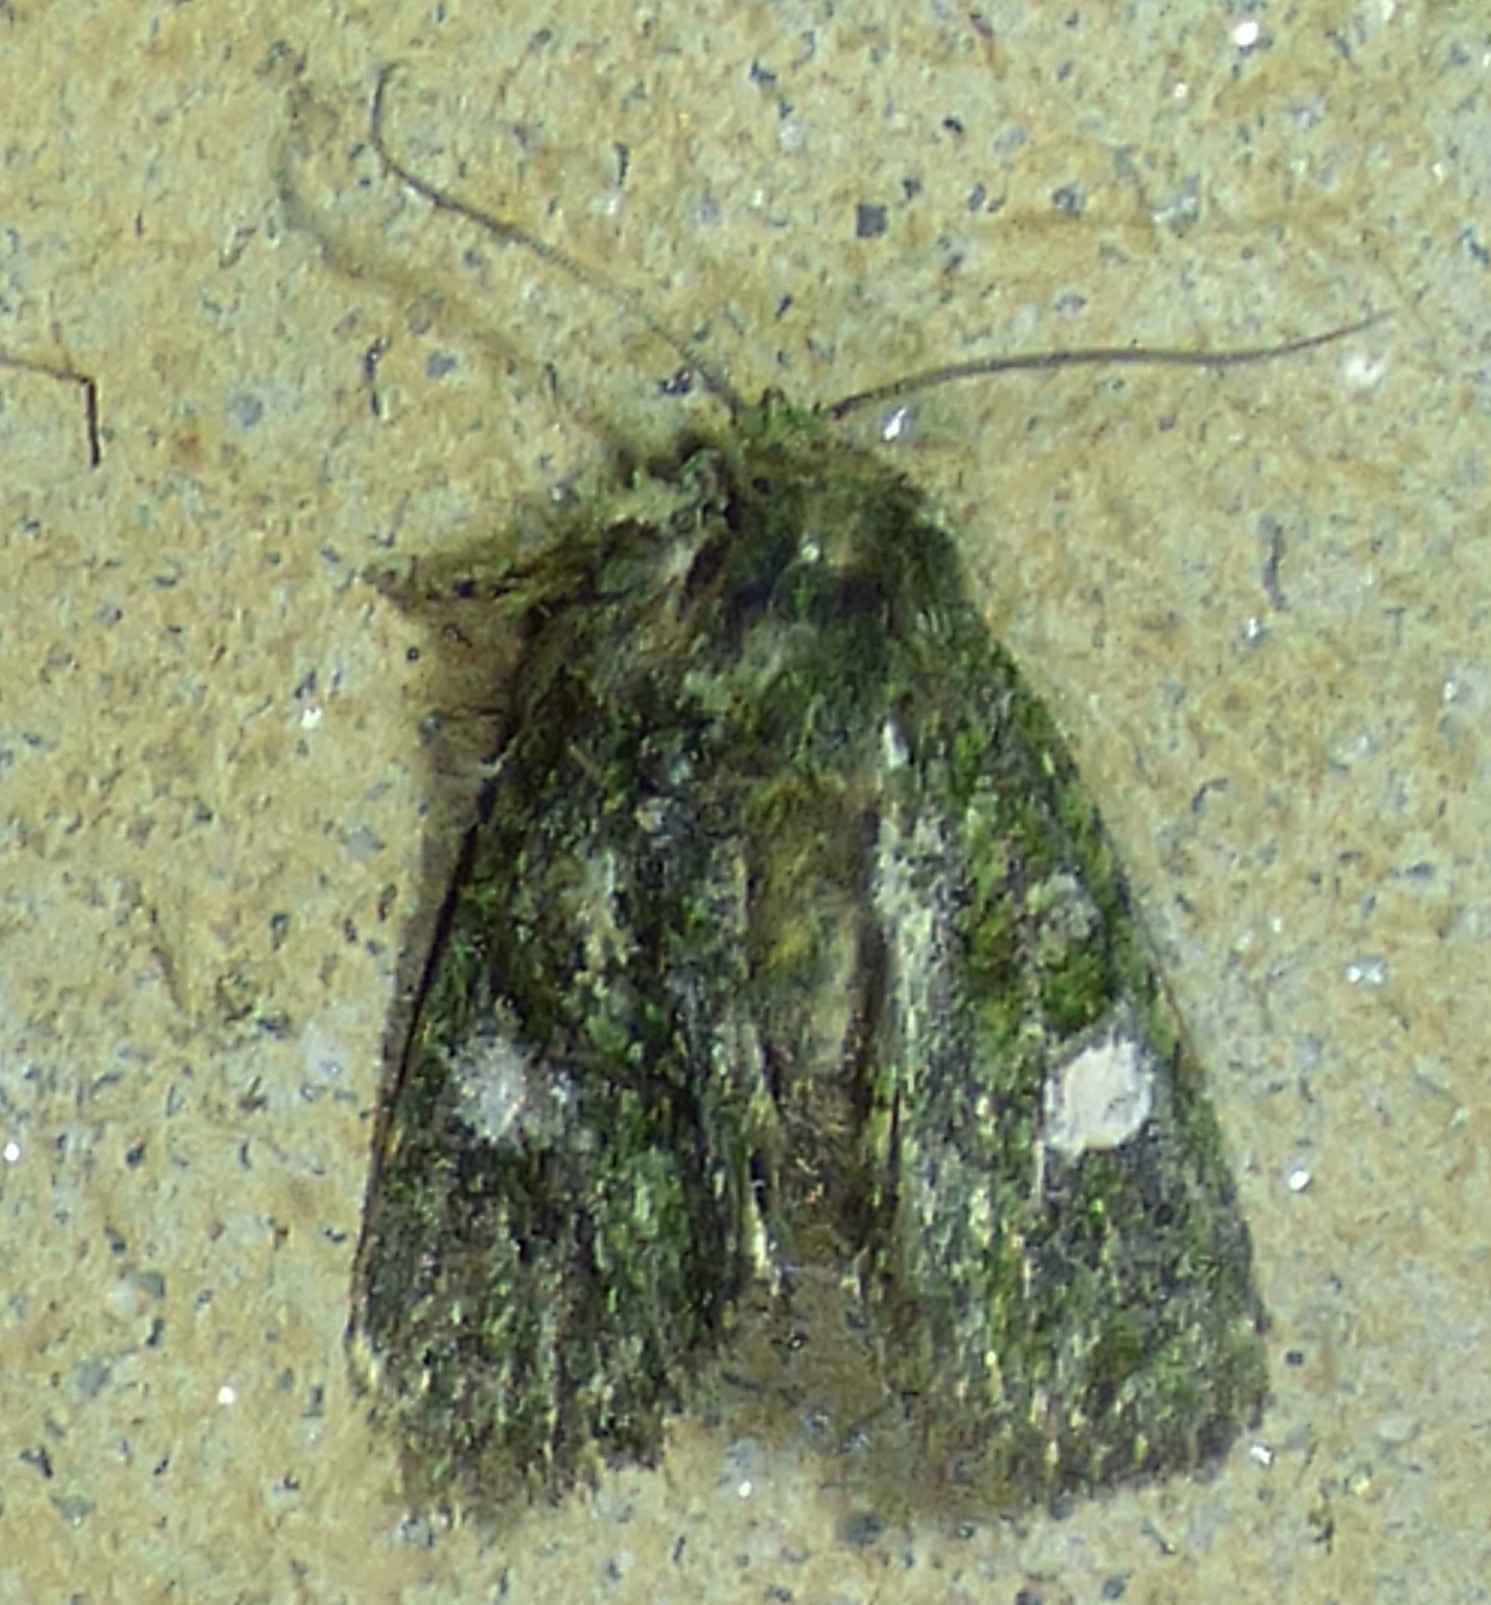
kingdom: Animalia
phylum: Arthropoda
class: Insecta
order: Lepidoptera
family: Noctuidae
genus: Phosphila
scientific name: Phosphila miselioides
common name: Spotted phosphila moth
